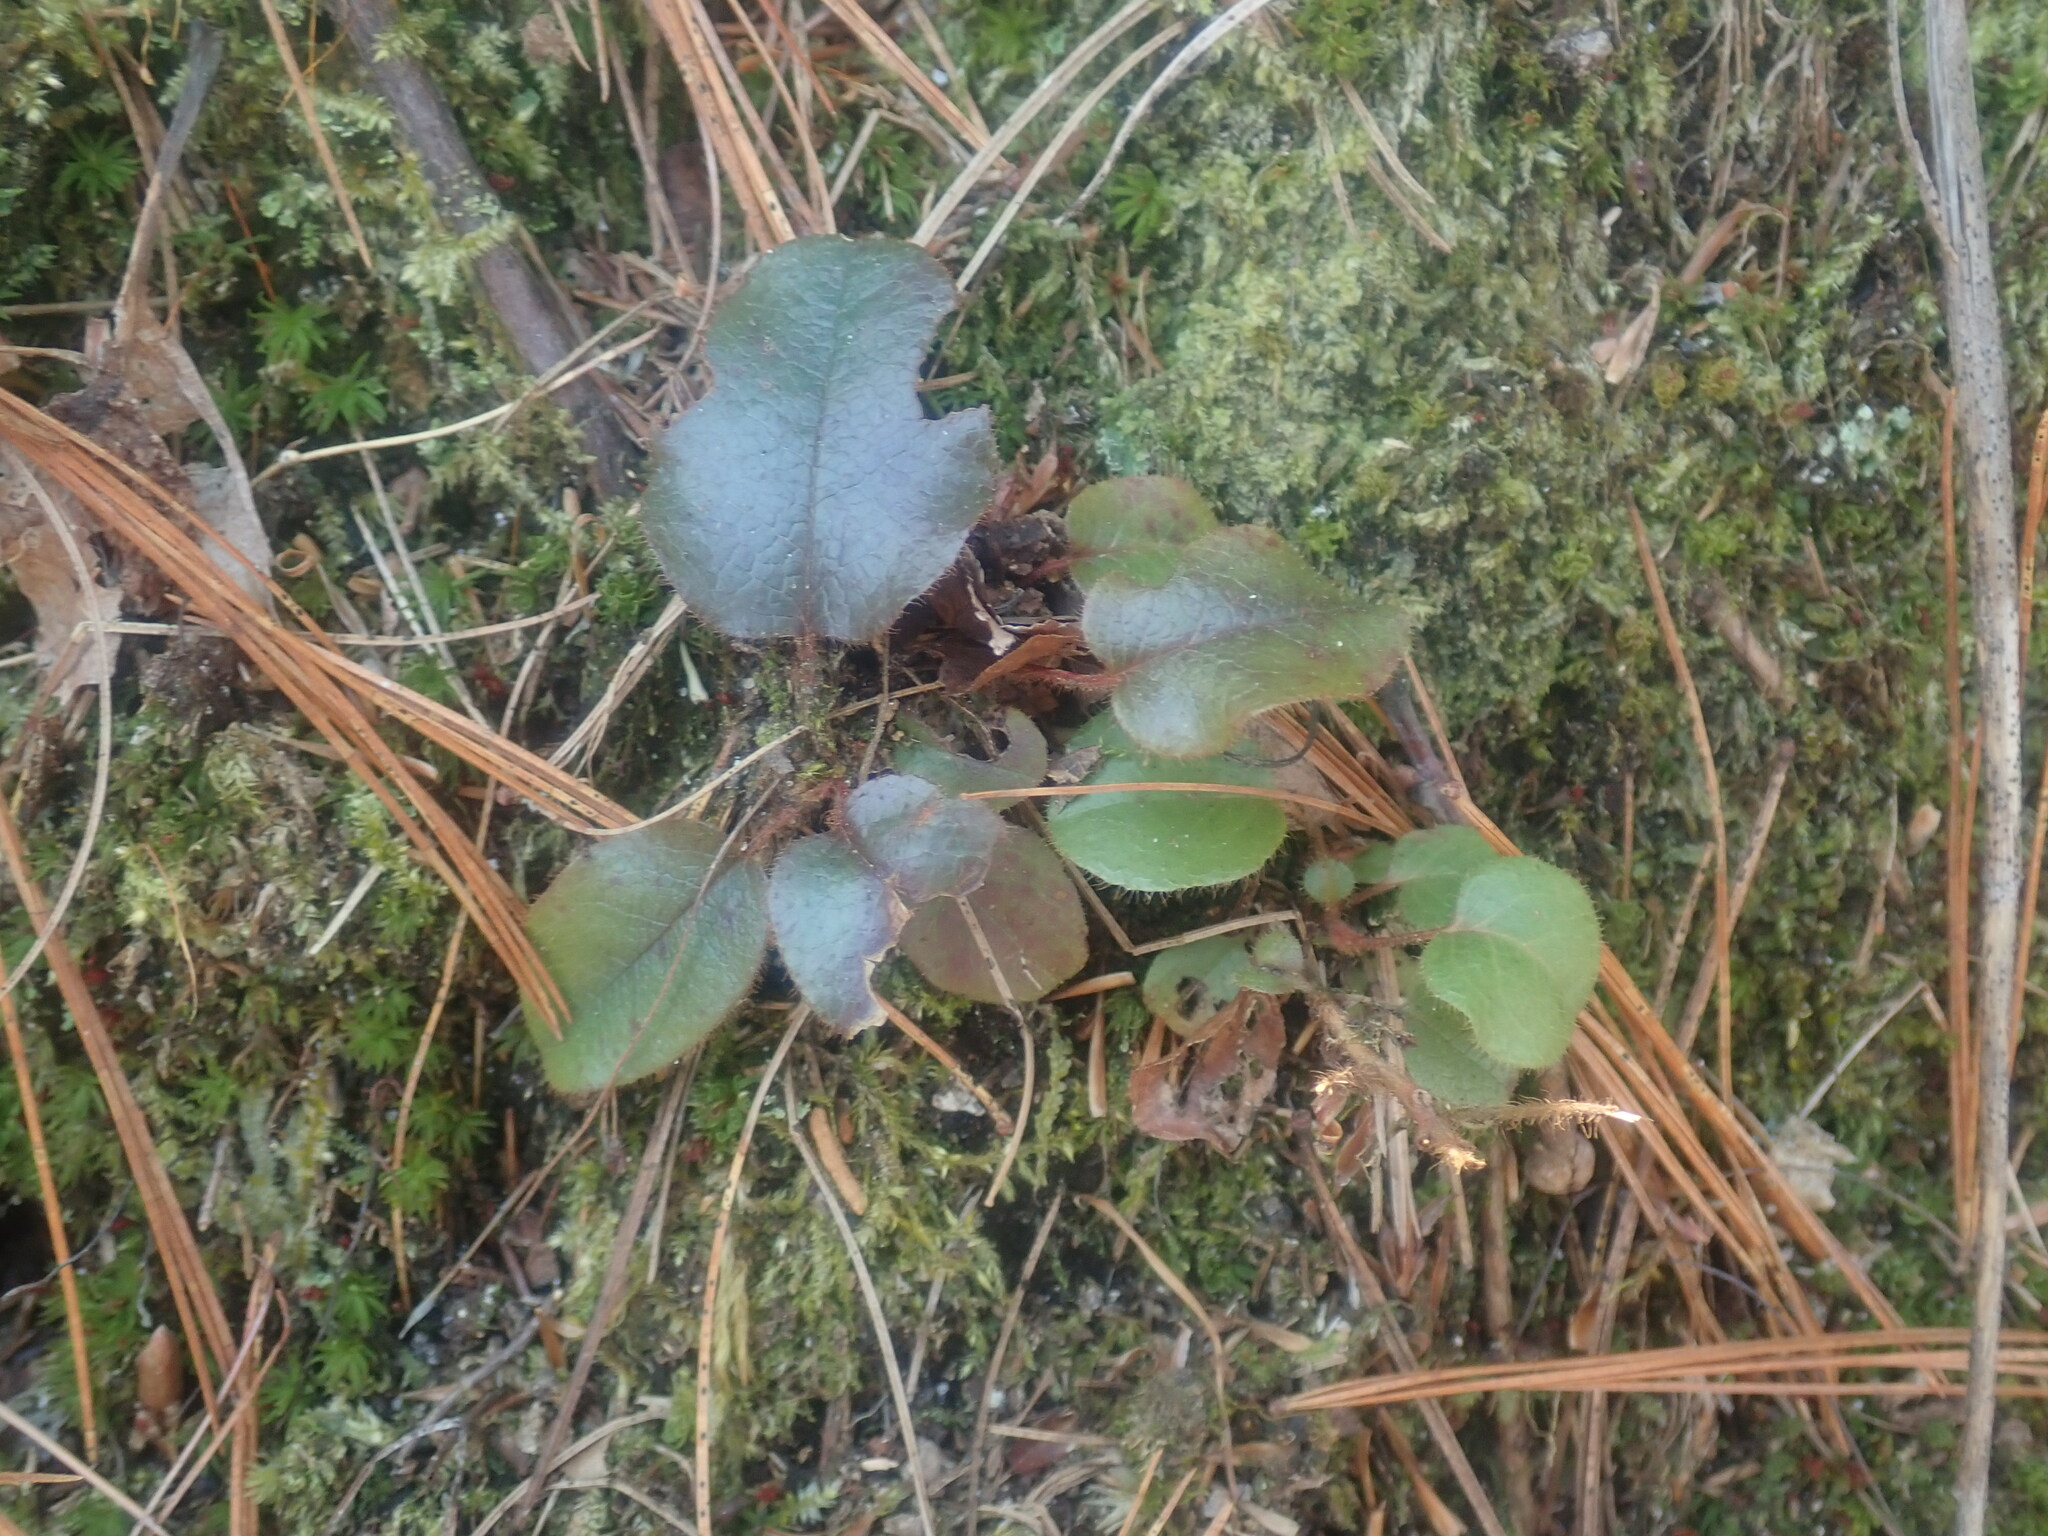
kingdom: Plantae
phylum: Tracheophyta
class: Magnoliopsida
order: Ericales
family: Ericaceae
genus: Epigaea
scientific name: Epigaea repens
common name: Gravelroot
